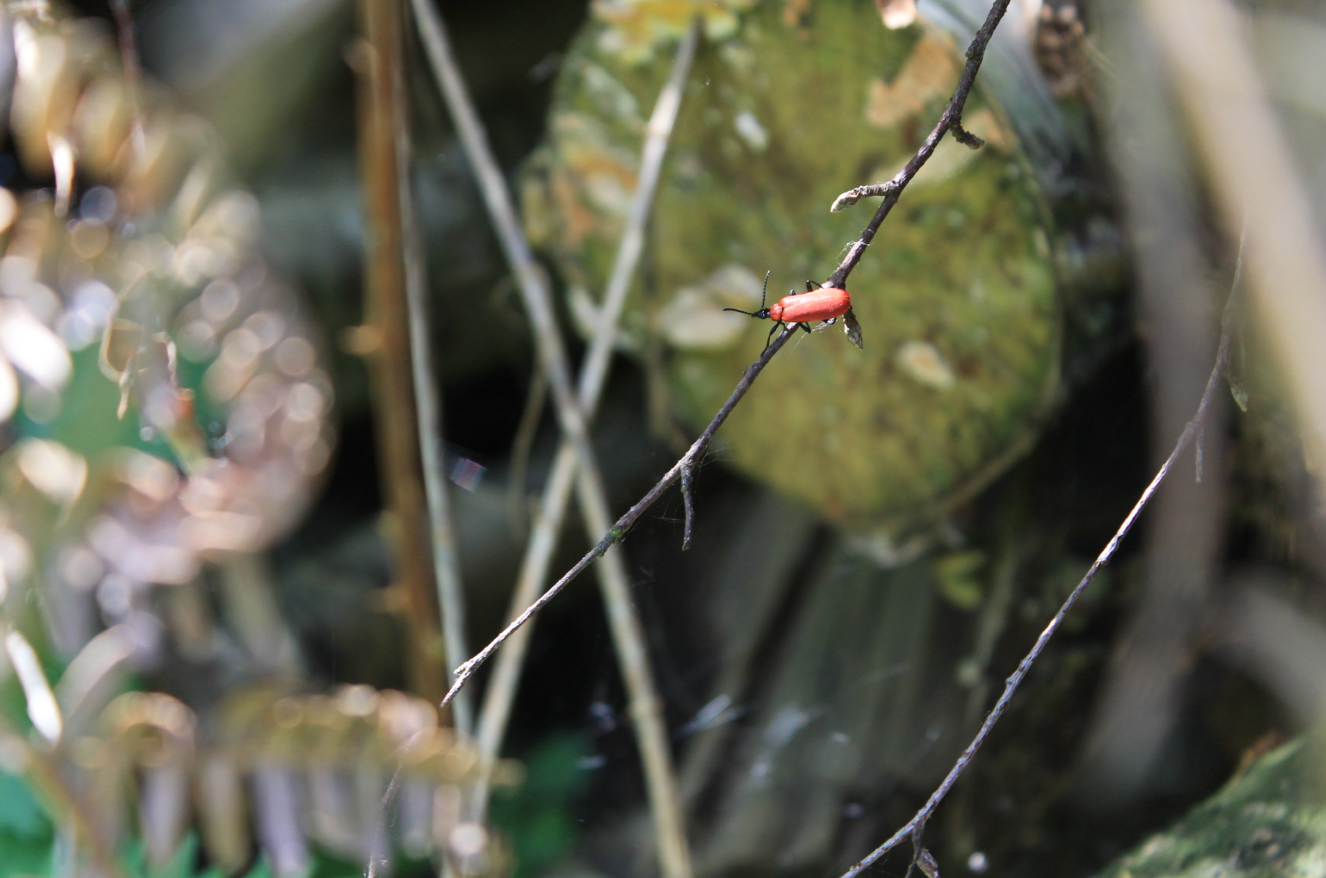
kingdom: Animalia
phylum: Arthropoda
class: Insecta
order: Coleoptera
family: Pyrochroidae
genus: Pyrochroa
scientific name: Pyrochroa coccinea
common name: Black-headed cardinal beetle
